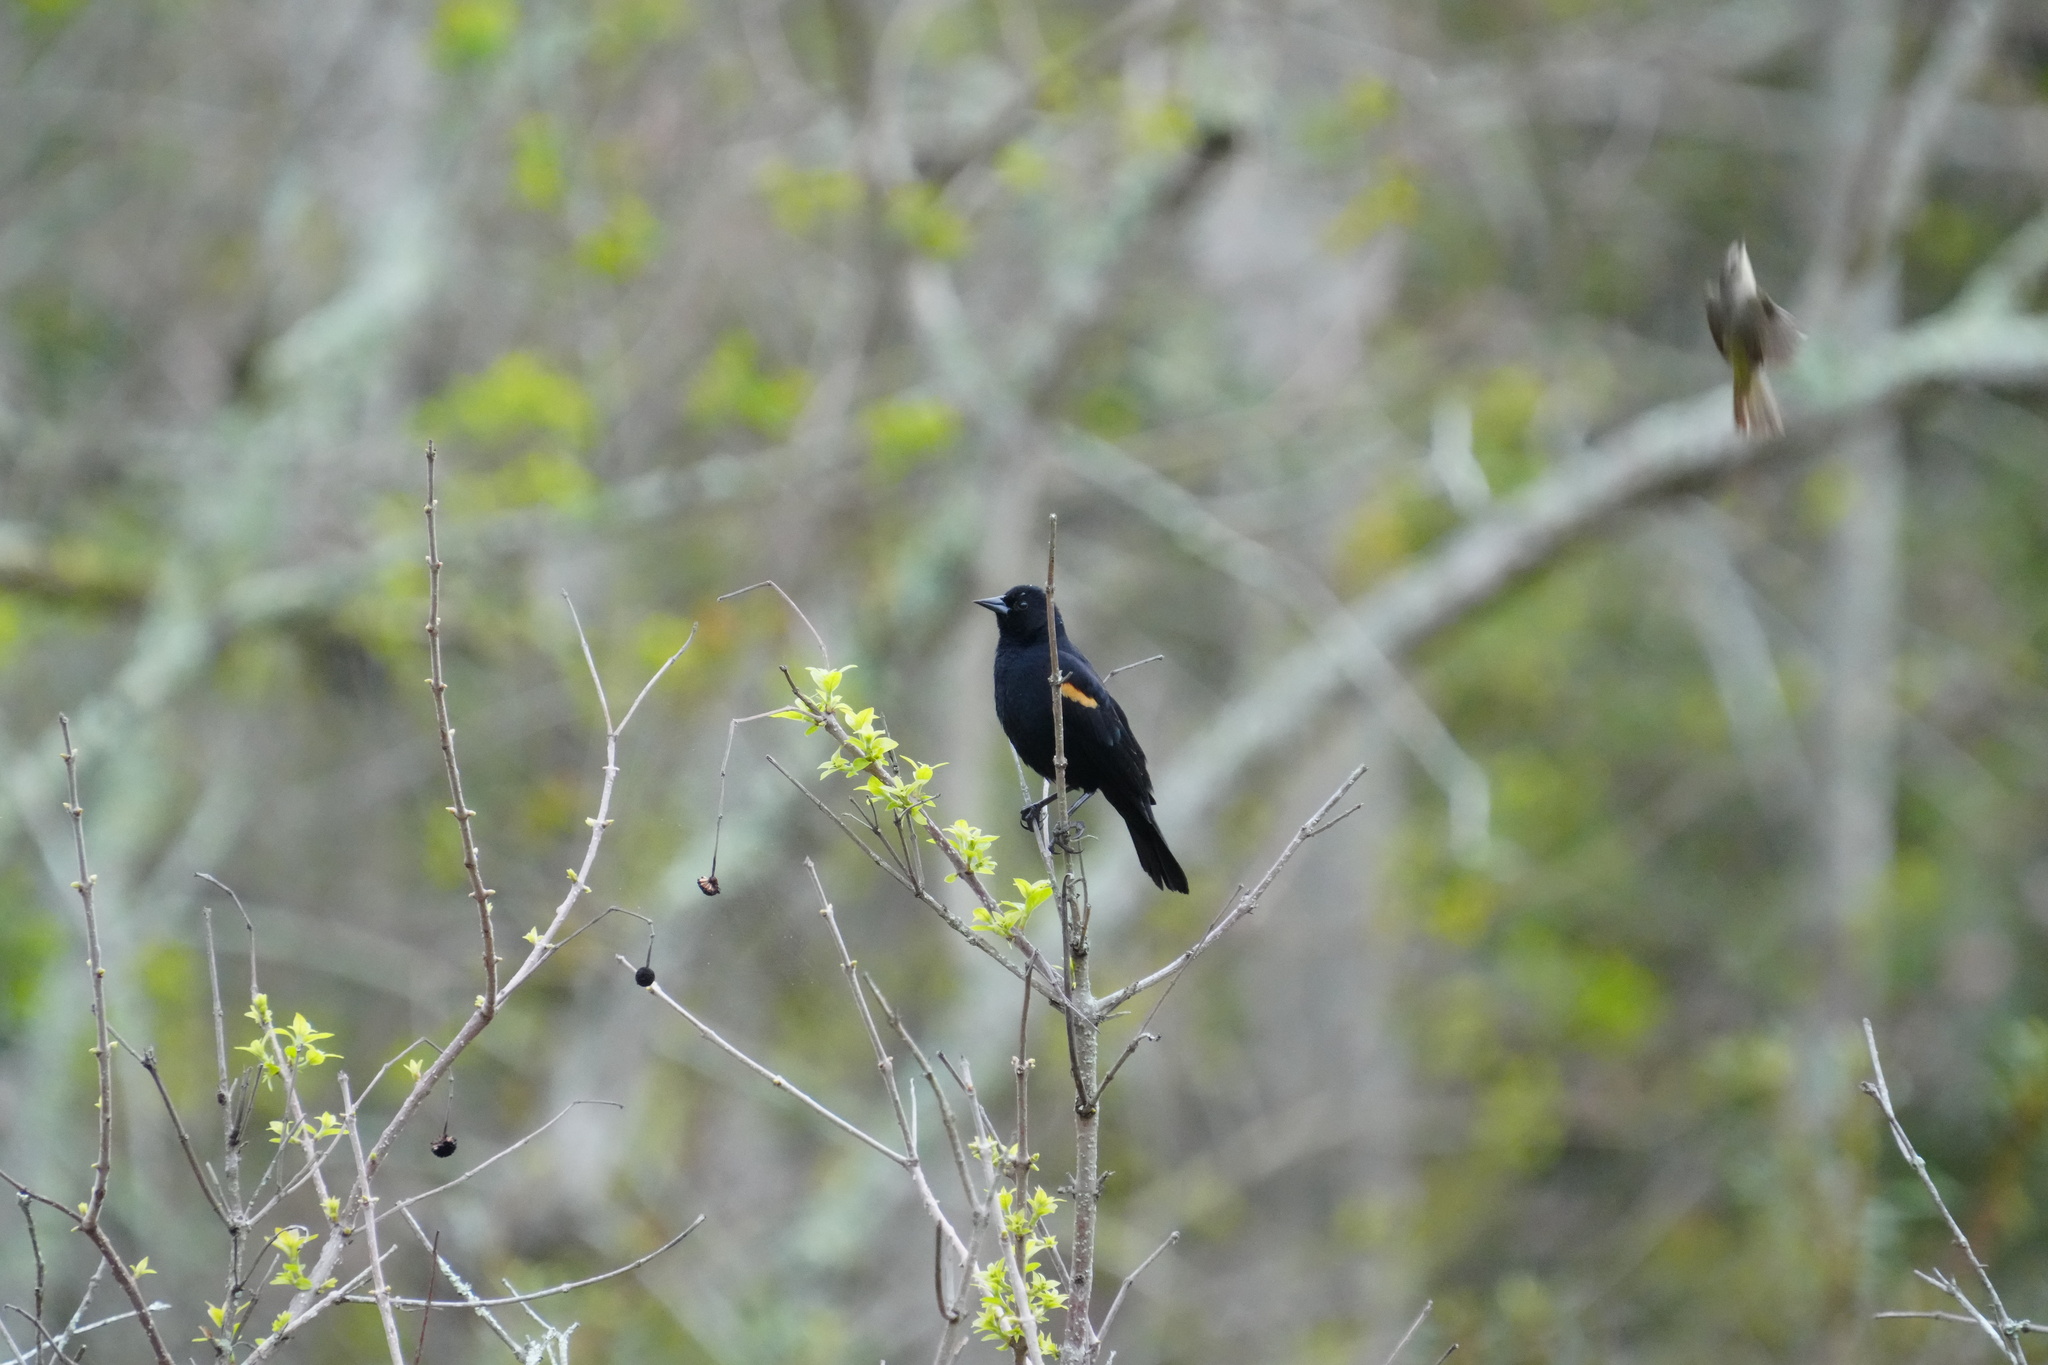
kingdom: Animalia
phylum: Chordata
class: Aves
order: Passeriformes
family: Icteridae
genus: Agelaius
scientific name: Agelaius phoeniceus
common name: Red-winged blackbird
